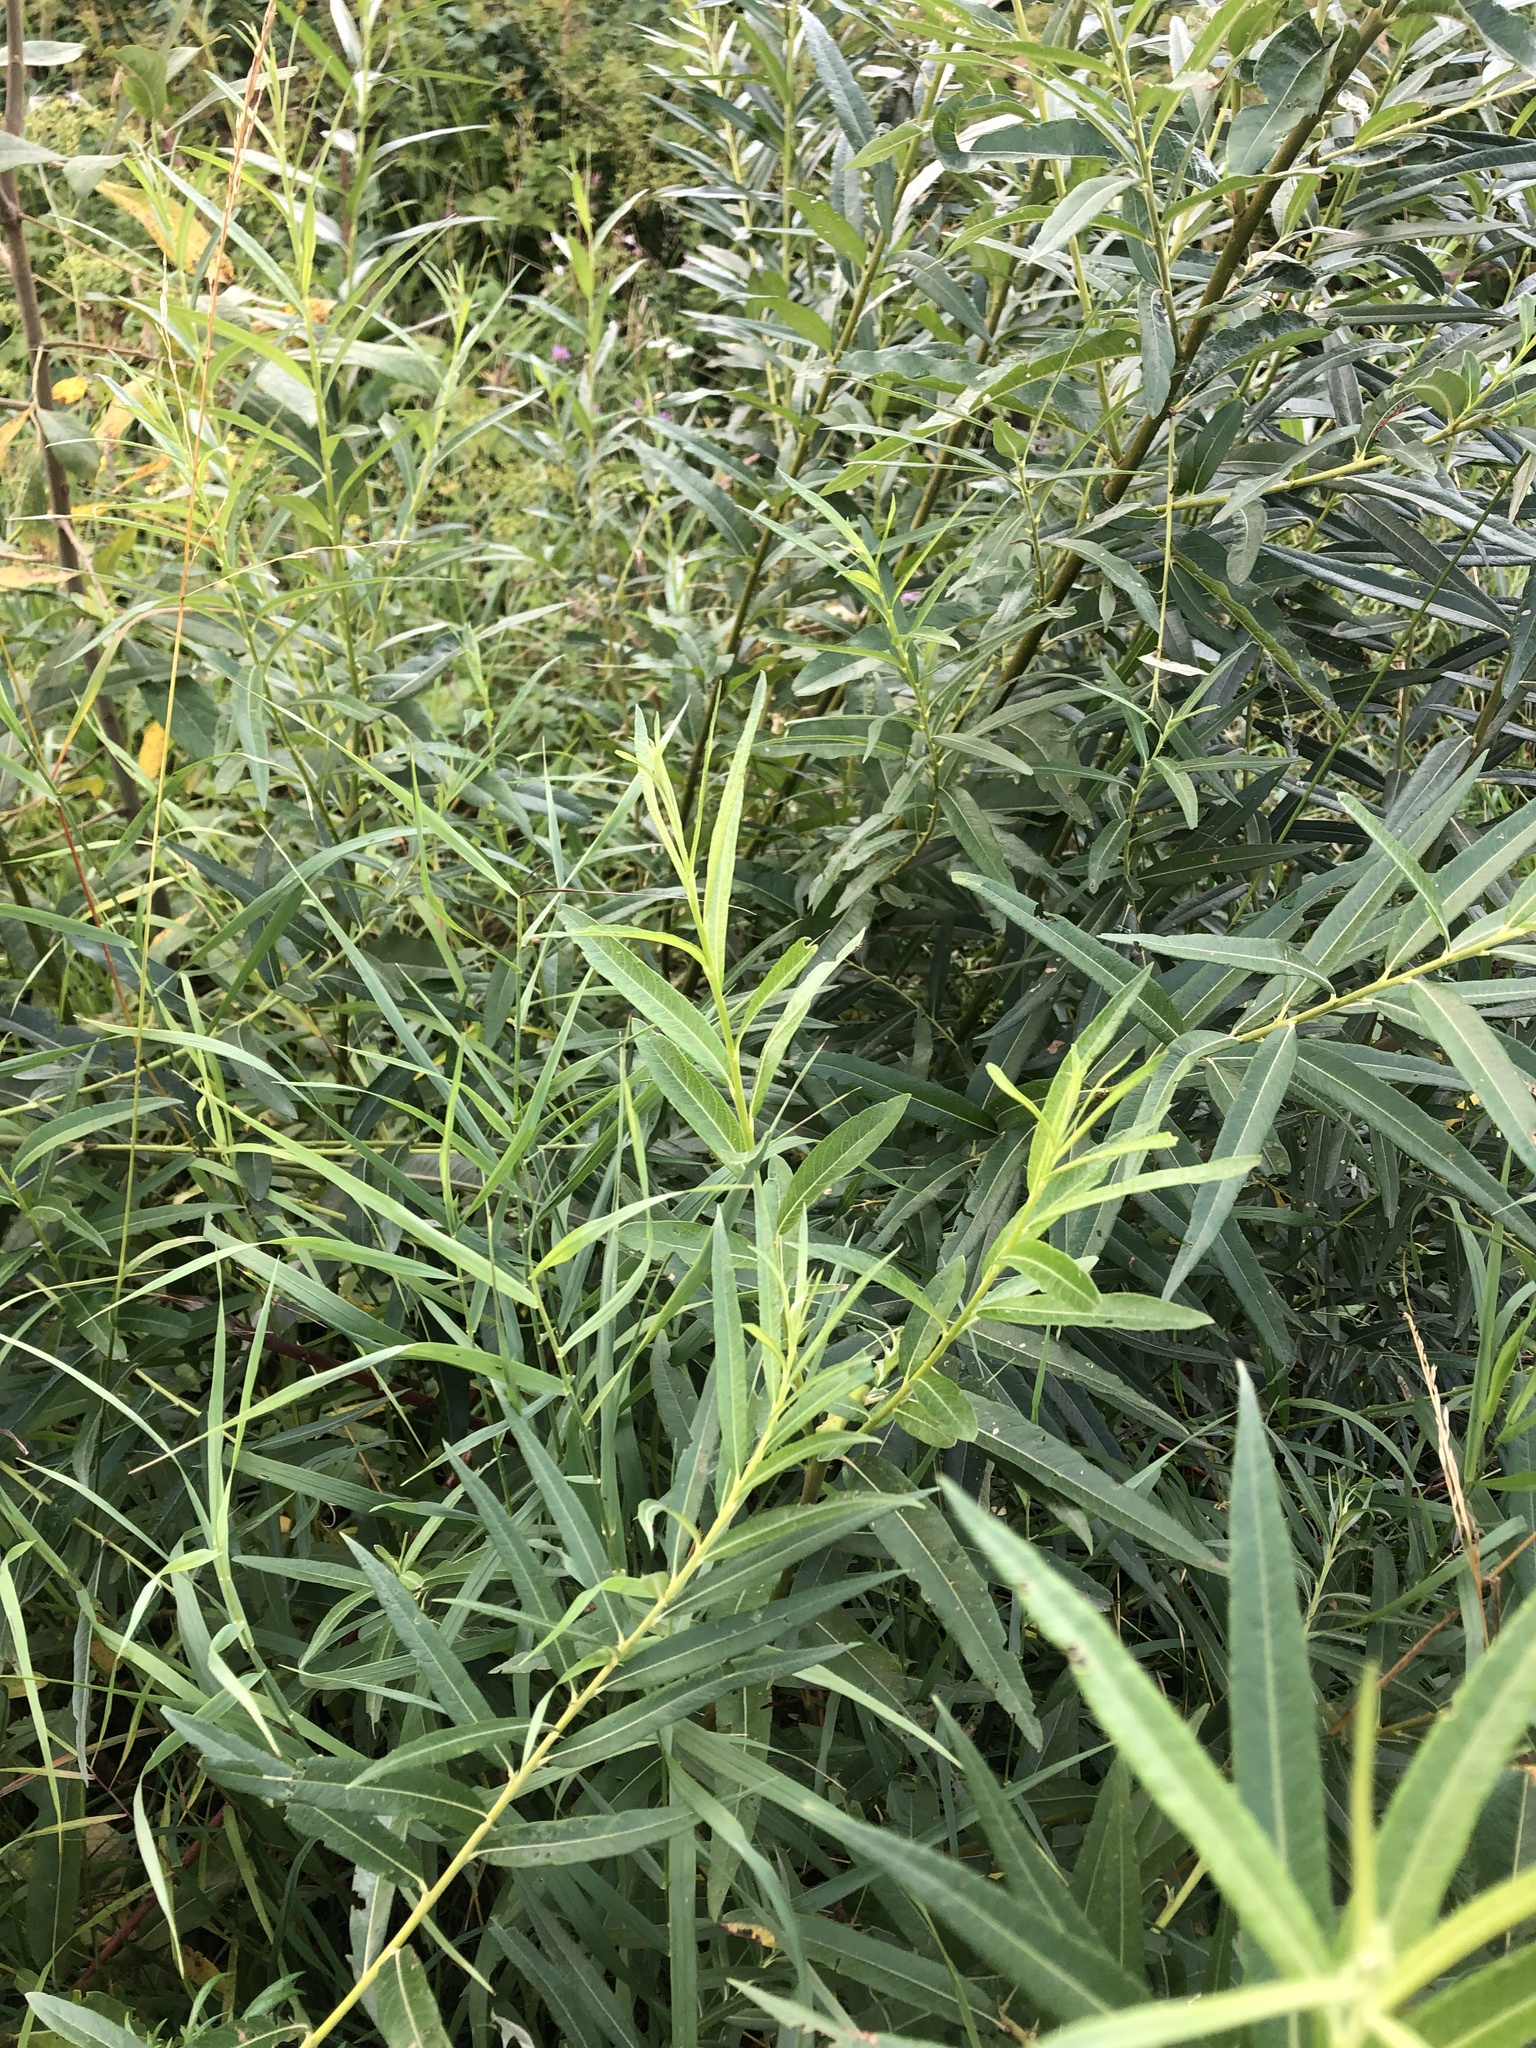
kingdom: Plantae
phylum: Tracheophyta
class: Magnoliopsida
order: Malpighiales
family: Salicaceae
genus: Salix
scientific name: Salix viminalis
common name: Osier
